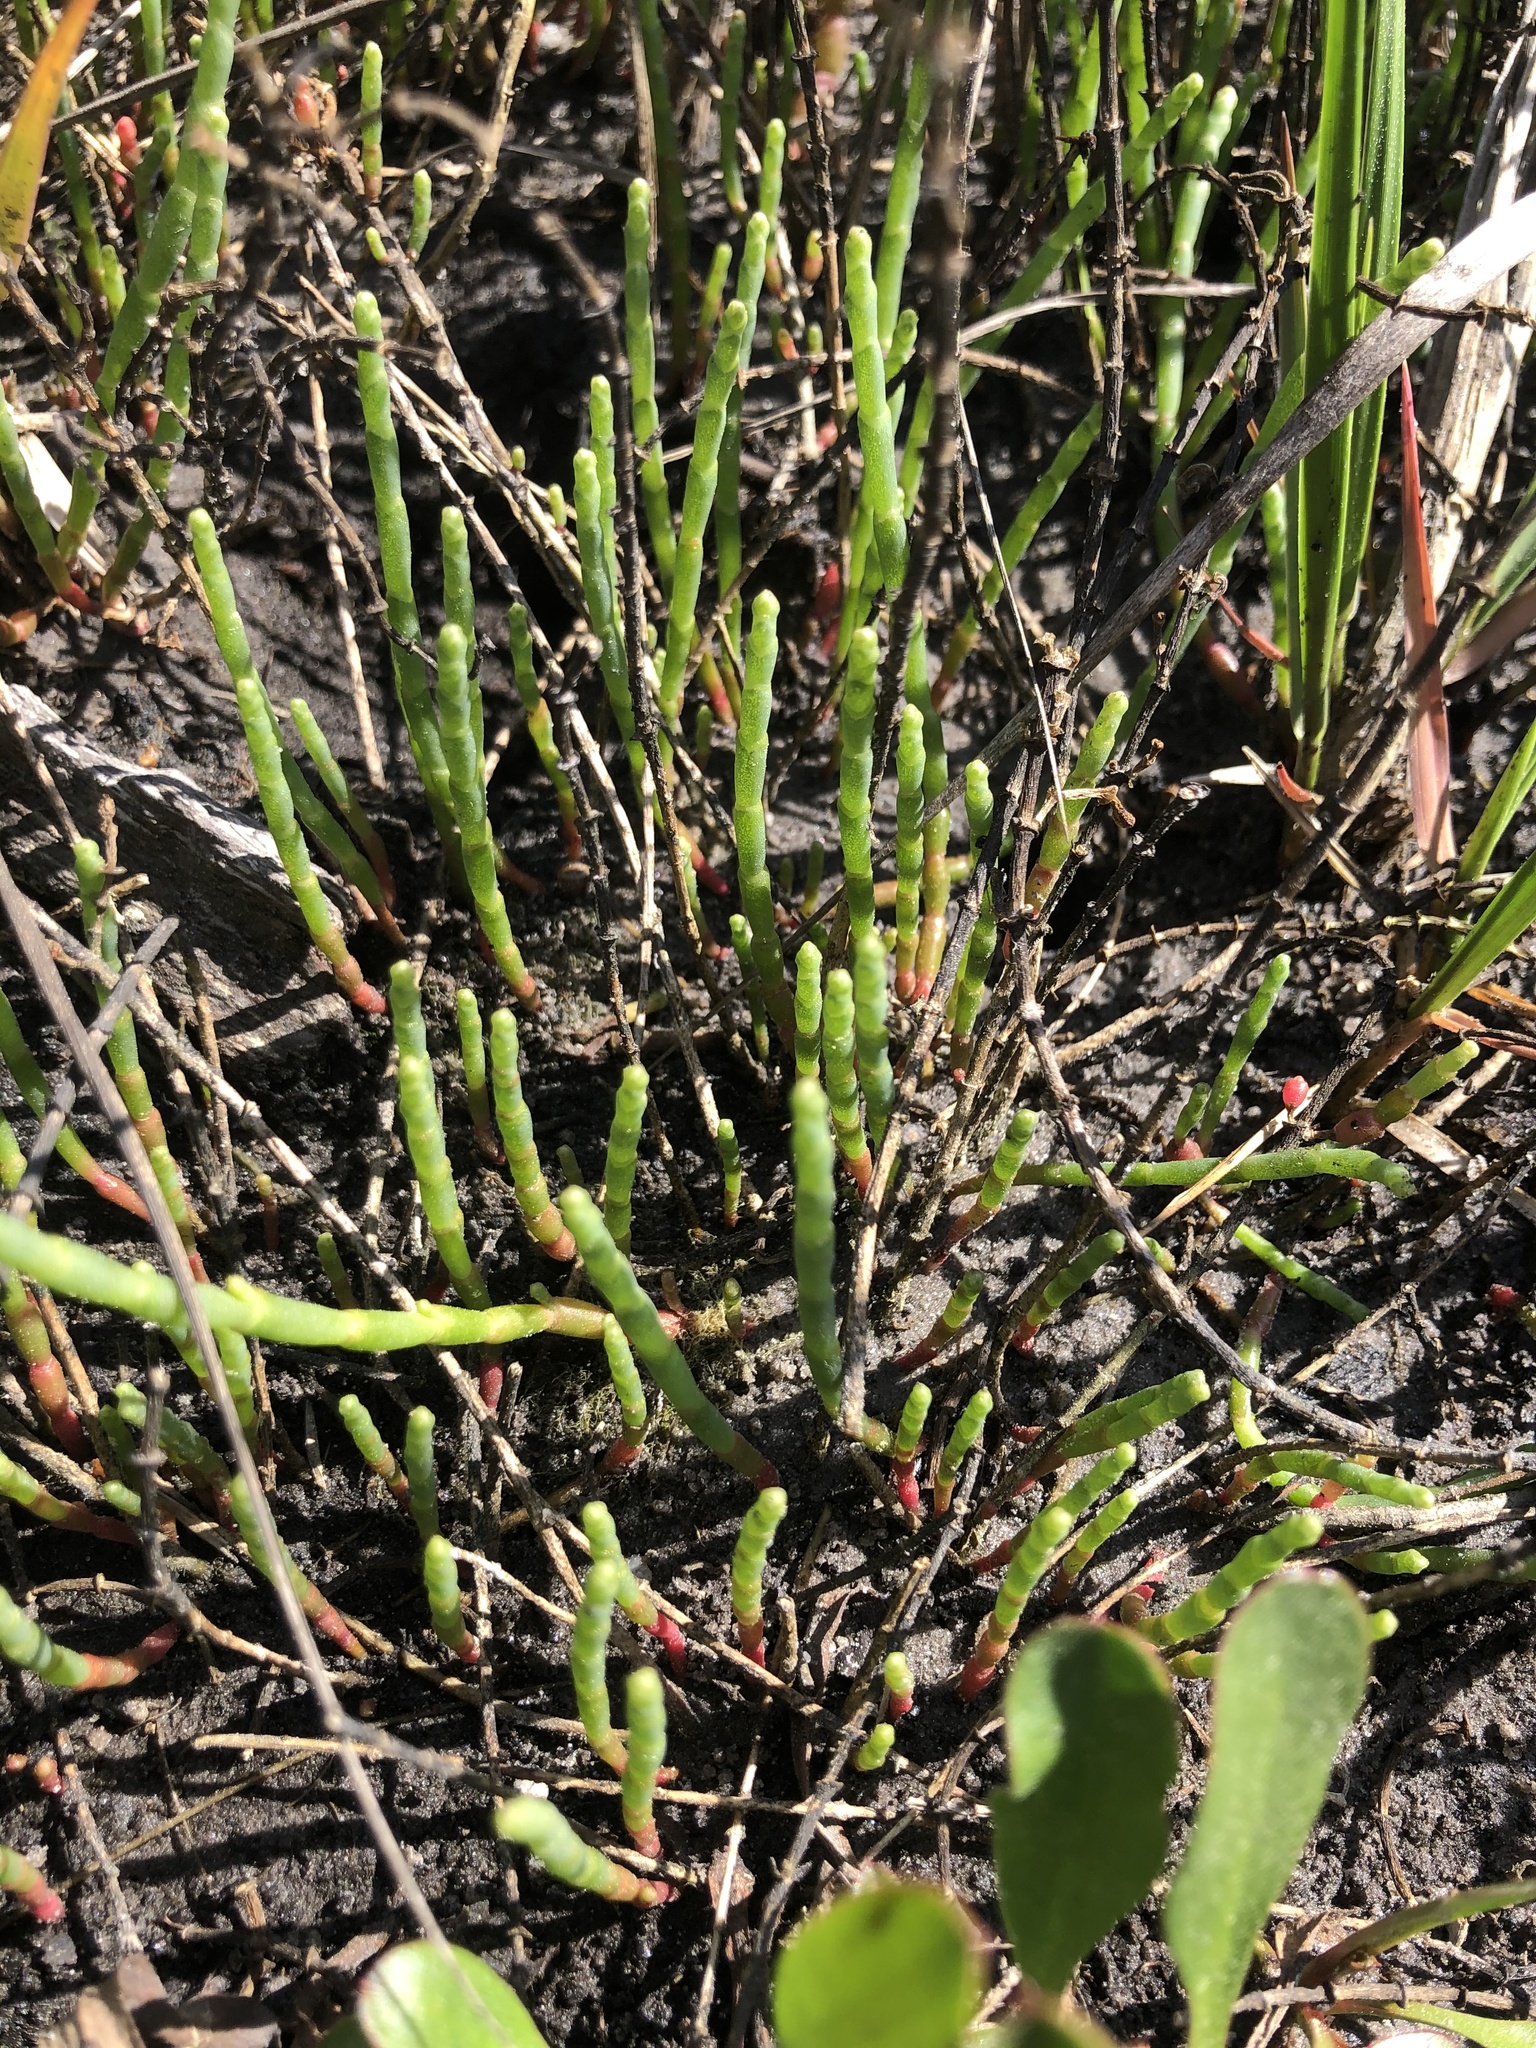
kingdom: Plantae
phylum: Tracheophyta
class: Magnoliopsida
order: Caryophyllales
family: Amaranthaceae
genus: Salicornia
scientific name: Salicornia ambigua
